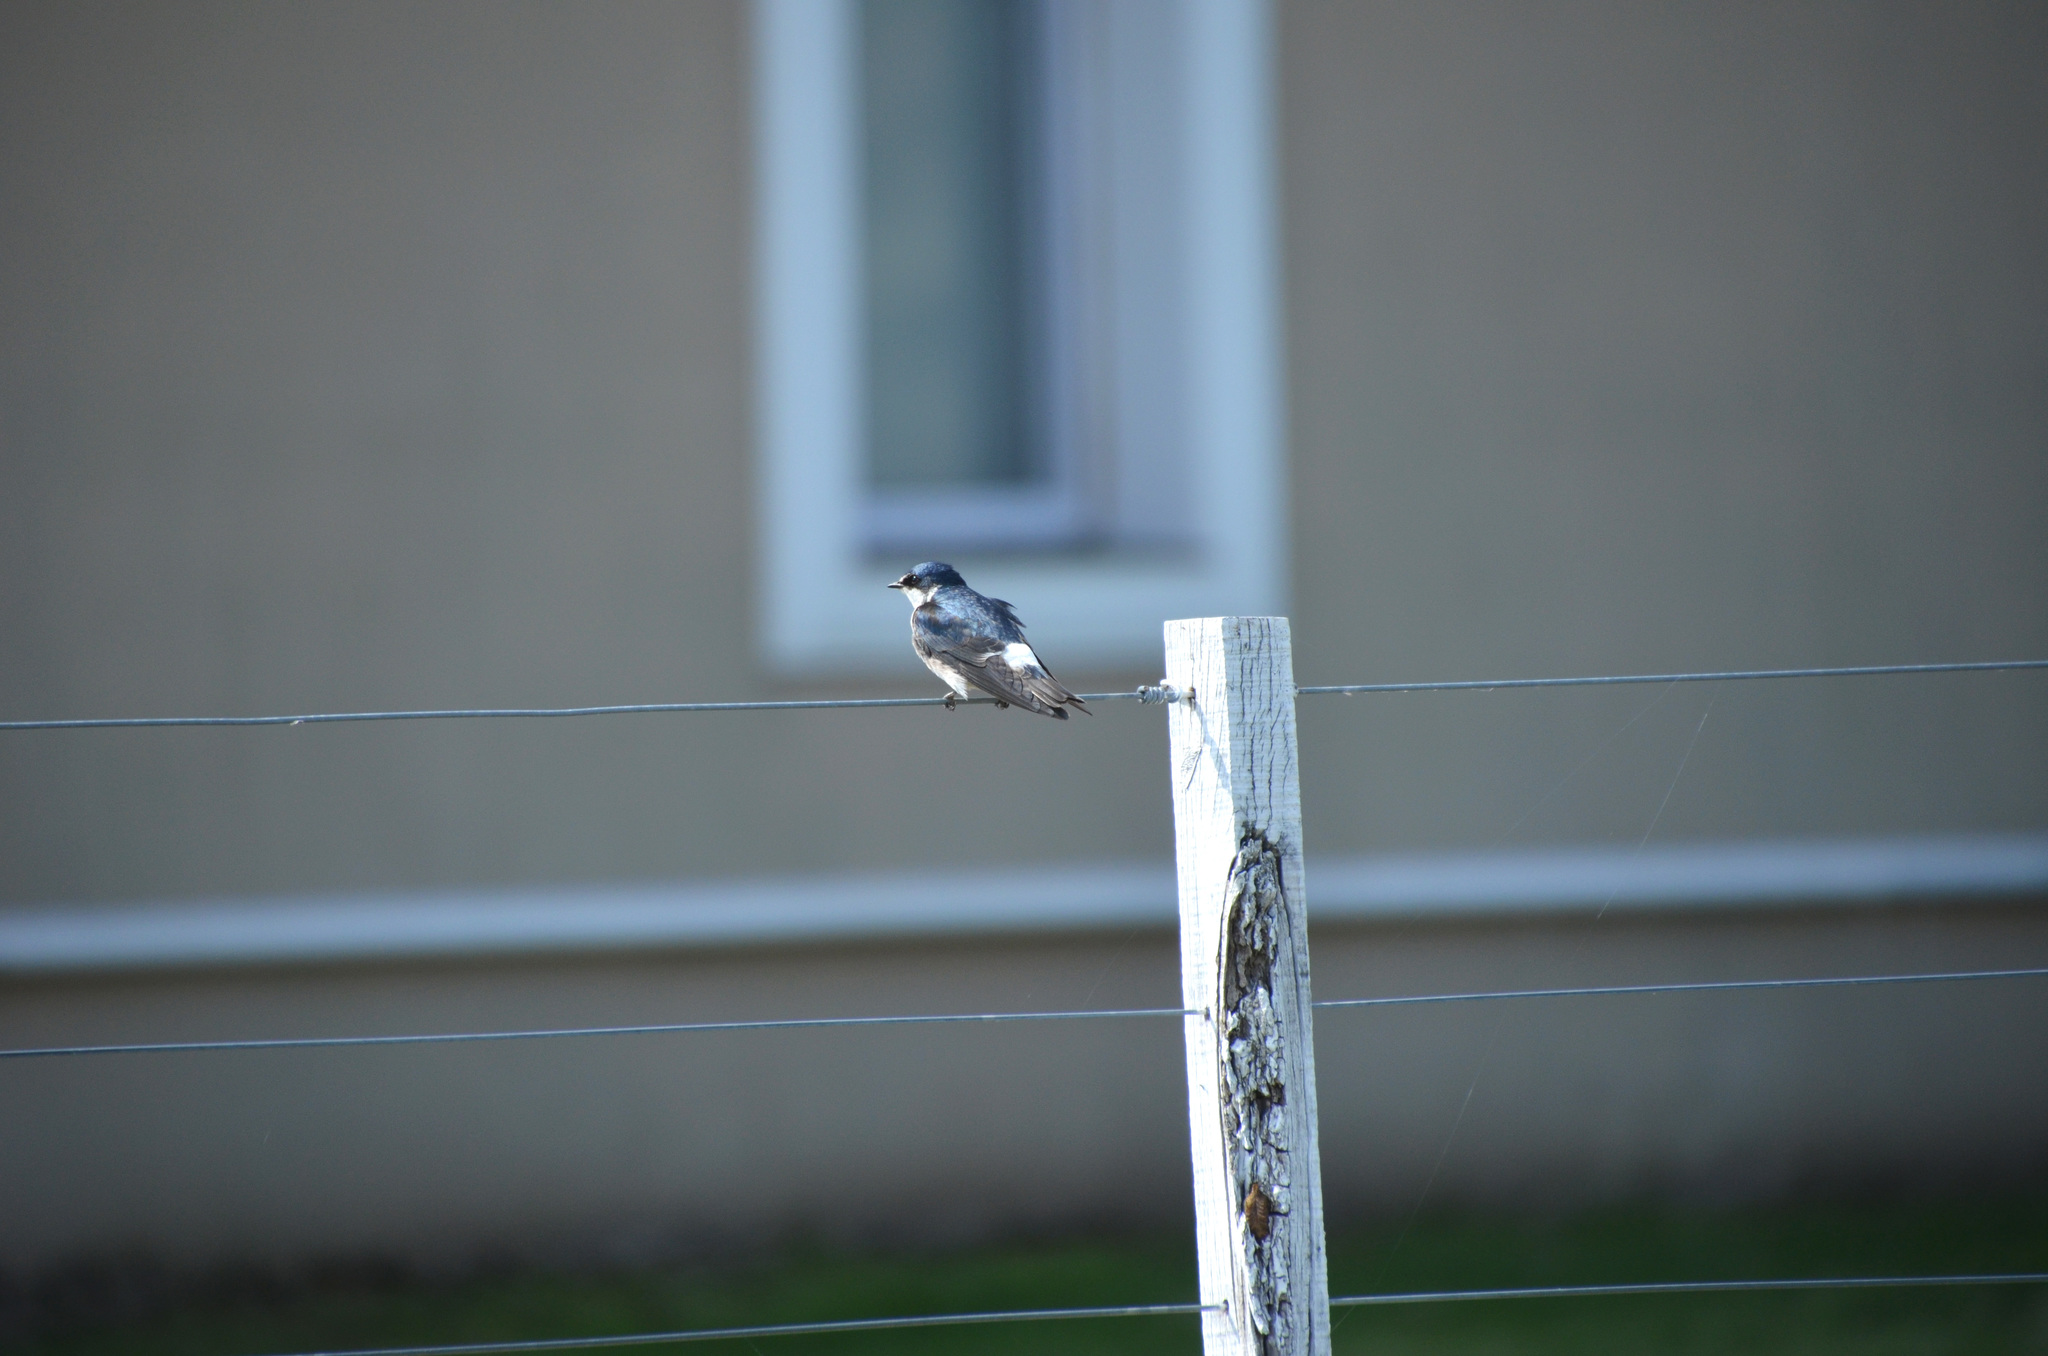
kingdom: Animalia
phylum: Chordata
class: Aves
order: Passeriformes
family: Hirundinidae
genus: Tachycineta
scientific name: Tachycineta leucorrhoa
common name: White-rumped swallow
